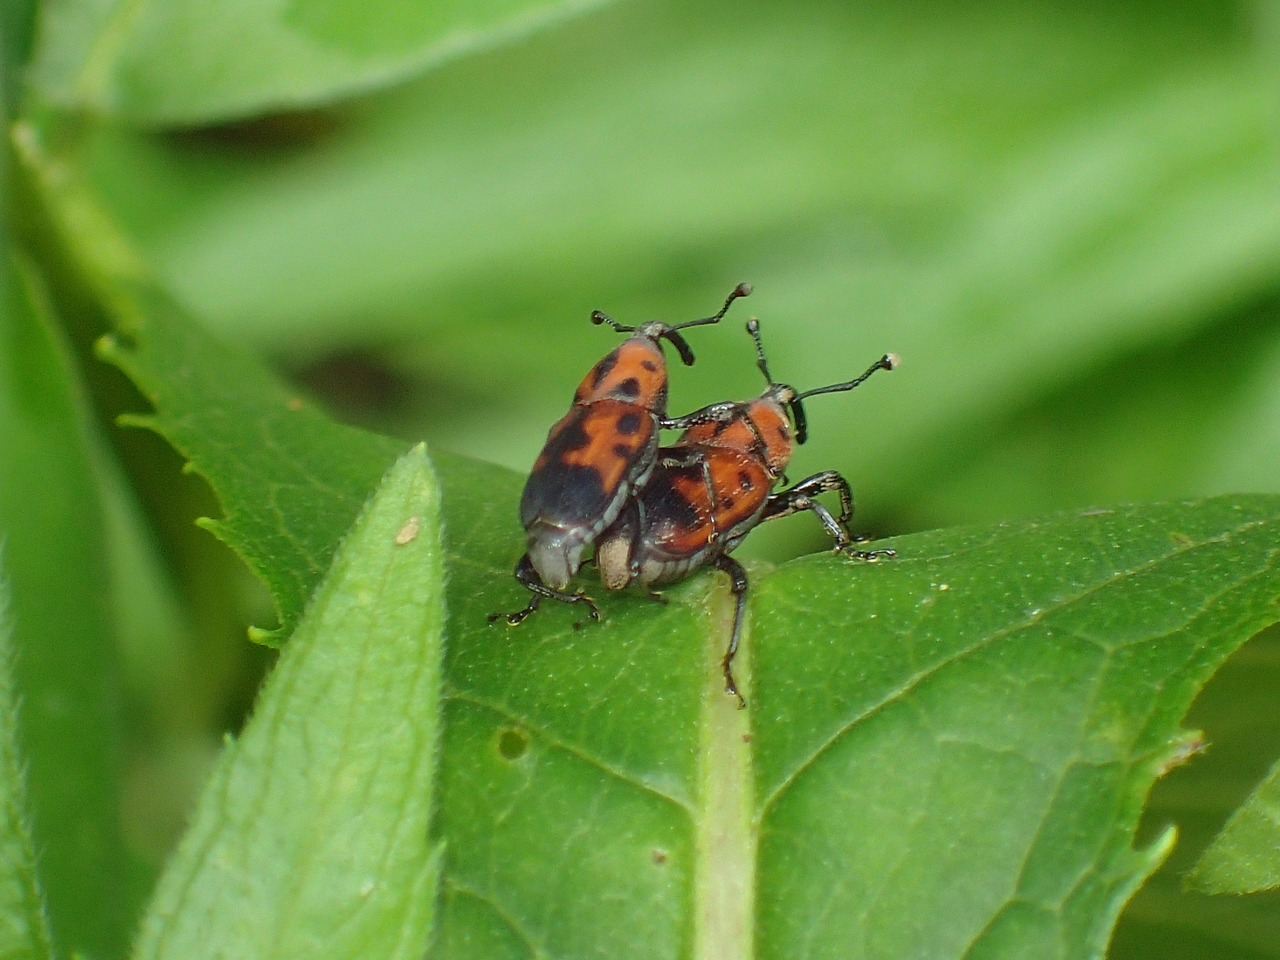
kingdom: Animalia
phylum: Arthropoda
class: Insecta
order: Coleoptera
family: Dryophthoridae
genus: Rhodobaenus
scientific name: Rhodobaenus quinquepunctatus
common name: Cocklebur weevil
